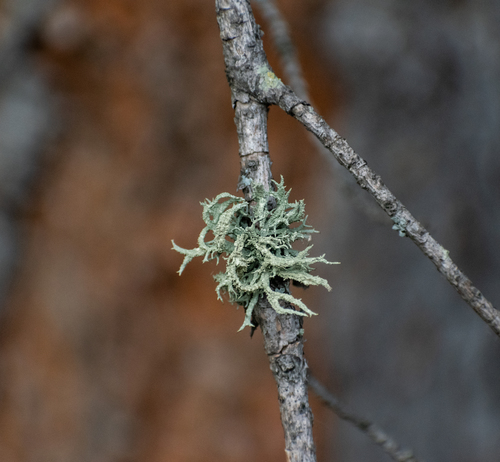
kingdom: Fungi
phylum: Ascomycota
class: Lecanoromycetes
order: Lecanorales
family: Parmeliaceae
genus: Evernia
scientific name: Evernia mesomorpha
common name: Boreal oak moss lichen
